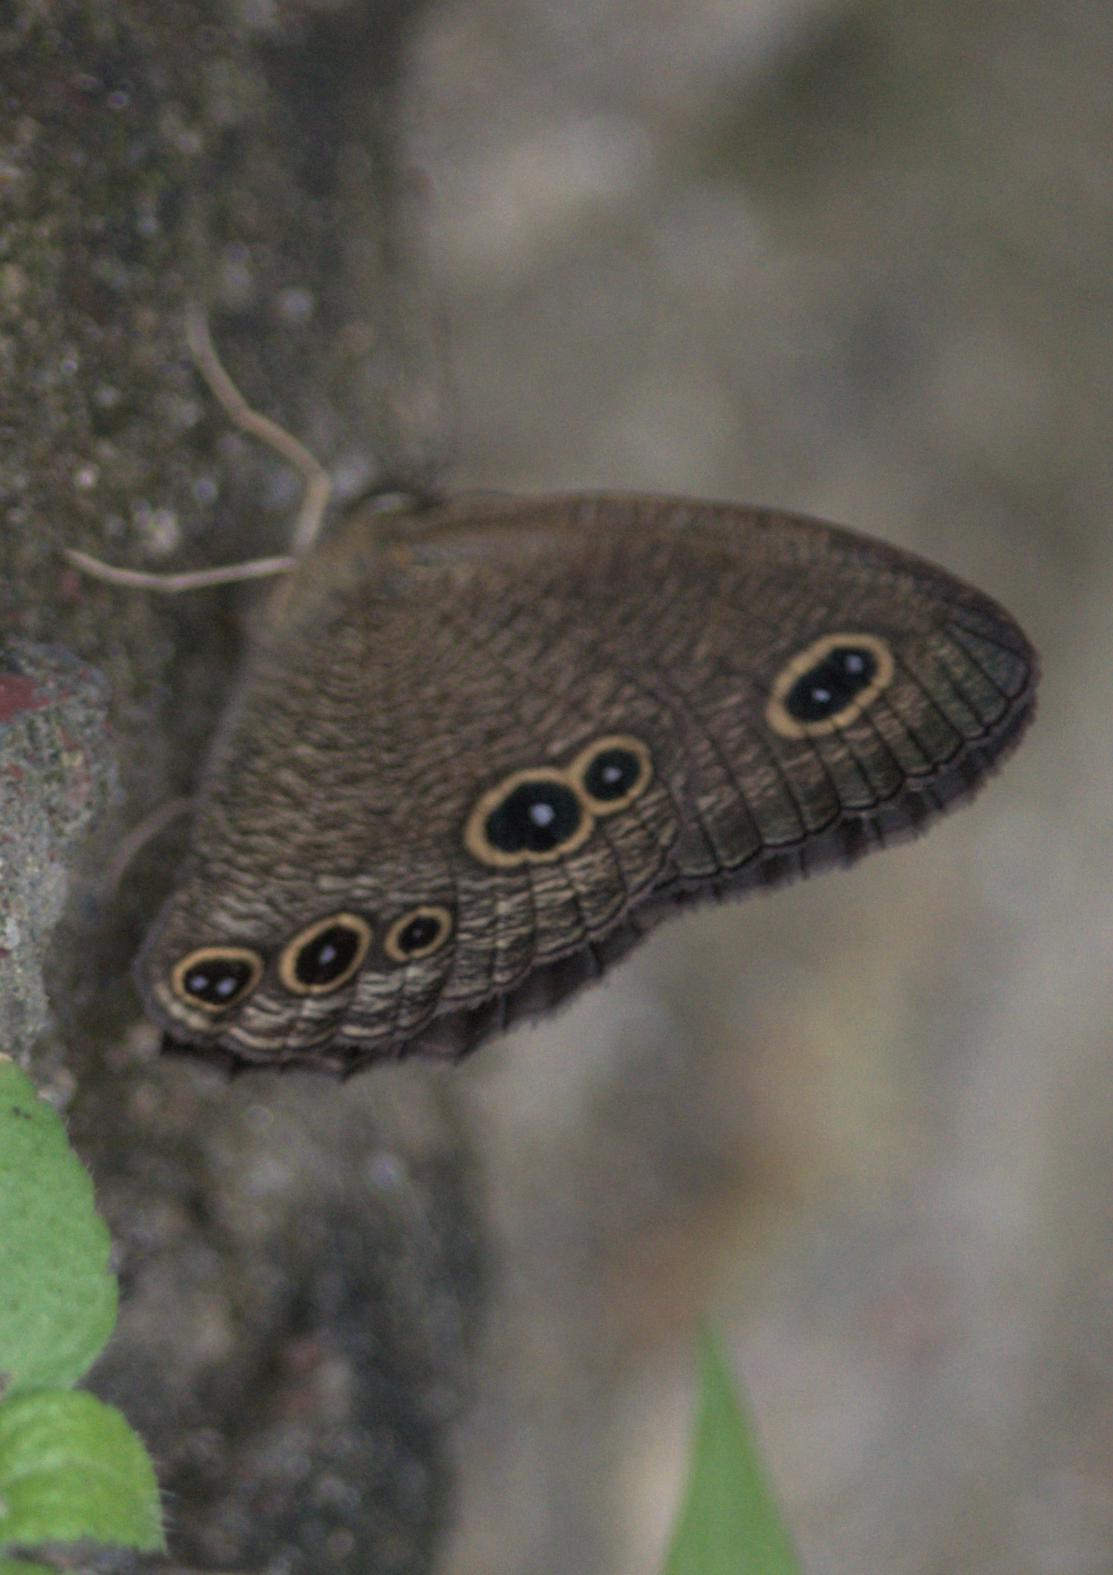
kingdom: Animalia
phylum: Arthropoda
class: Insecta
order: Lepidoptera
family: Nymphalidae
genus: Ypthima
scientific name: Ypthima nikaea
